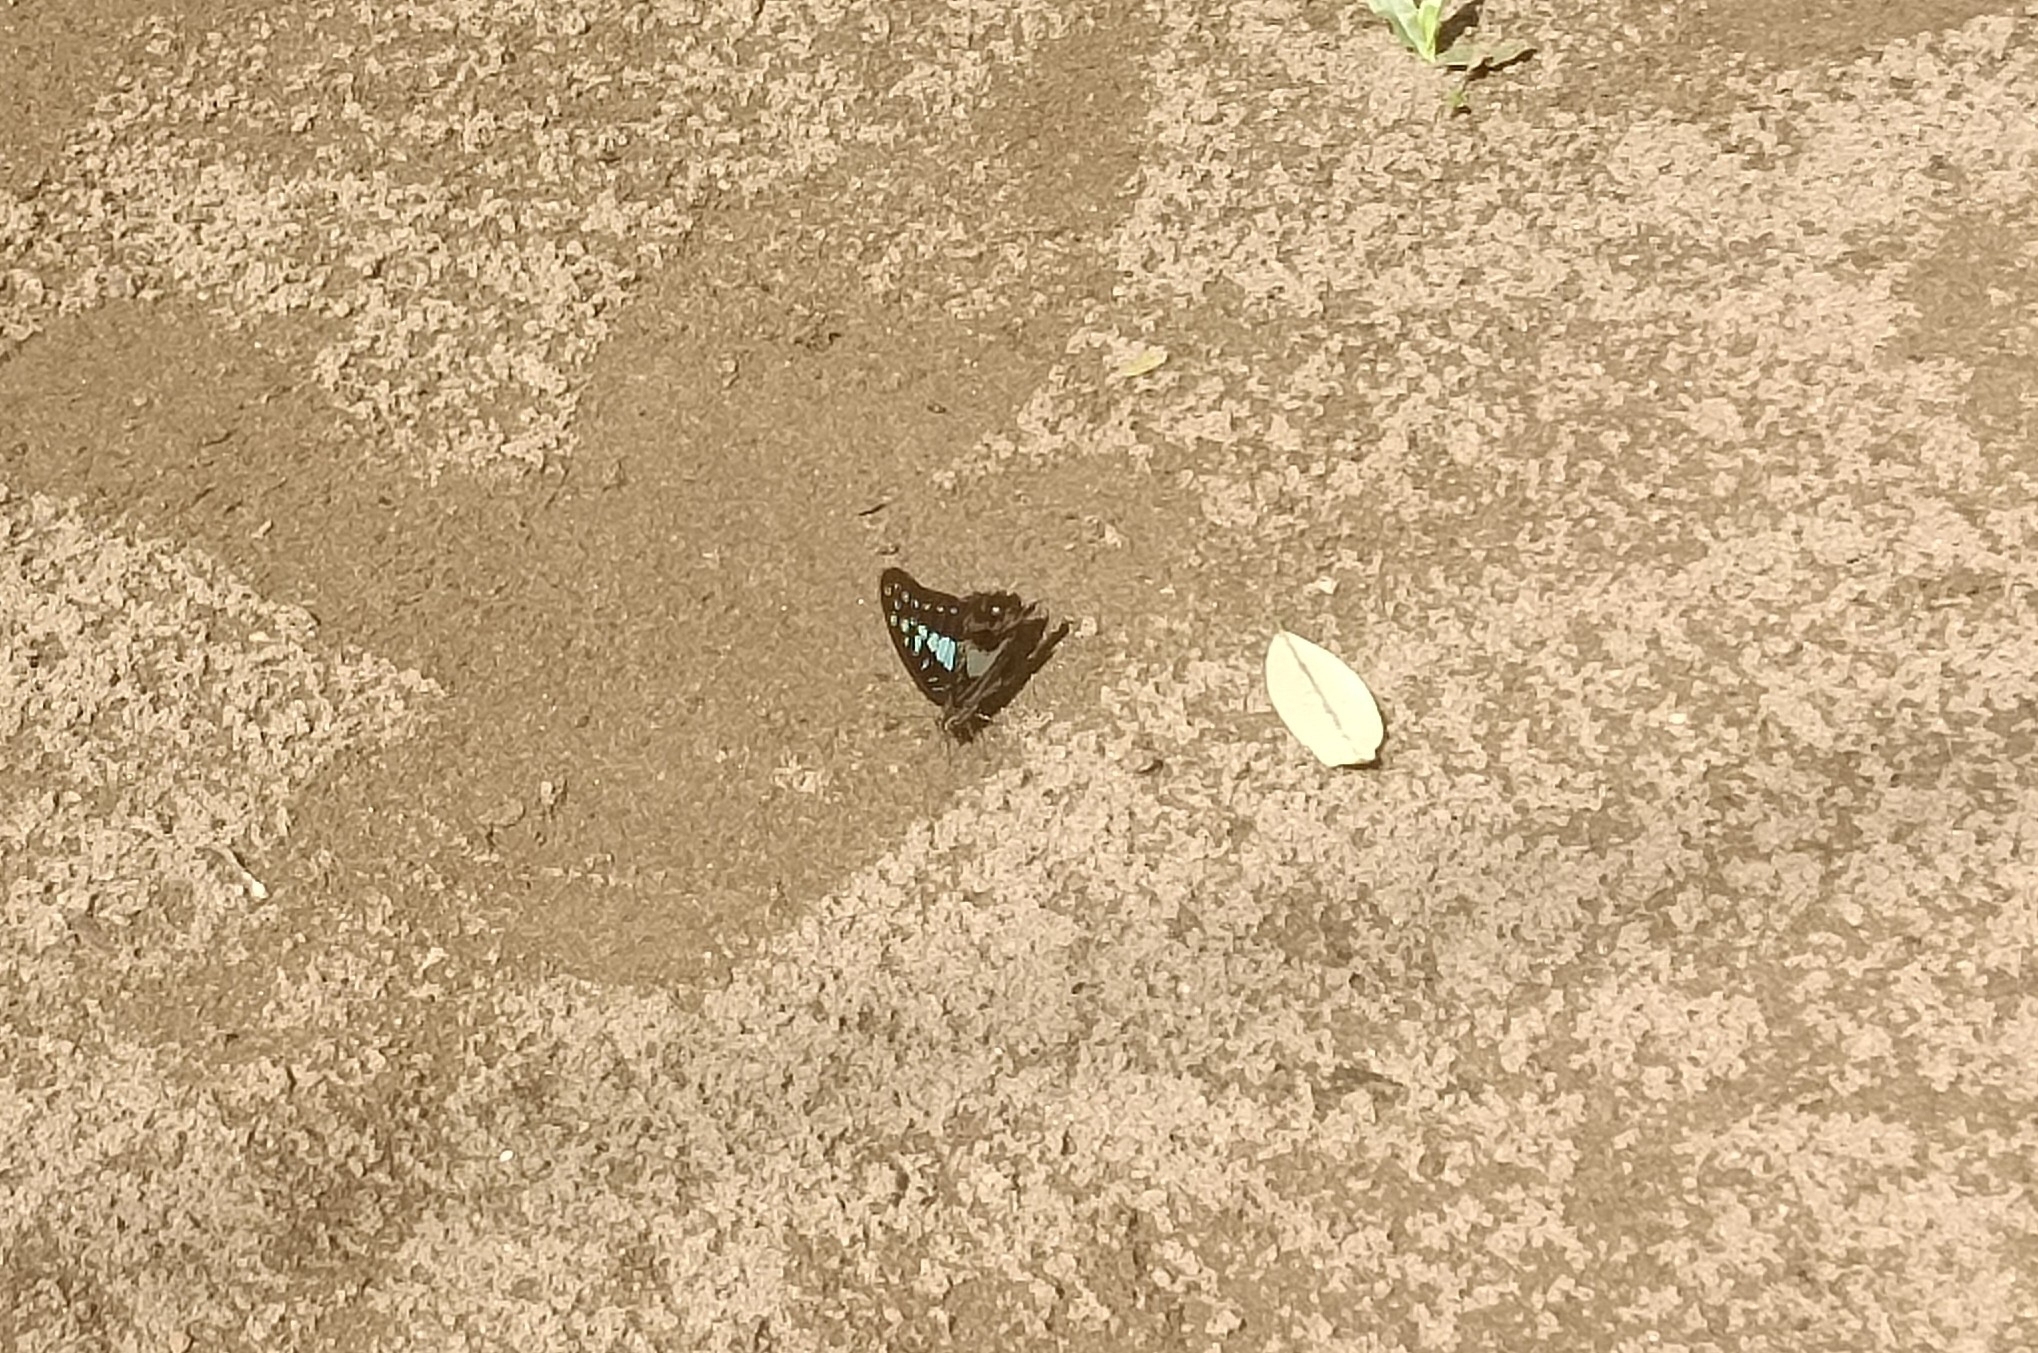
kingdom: Animalia
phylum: Arthropoda
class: Insecta
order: Lepidoptera
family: Papilionidae
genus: Graphium
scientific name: Graphium doson
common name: Common jay
